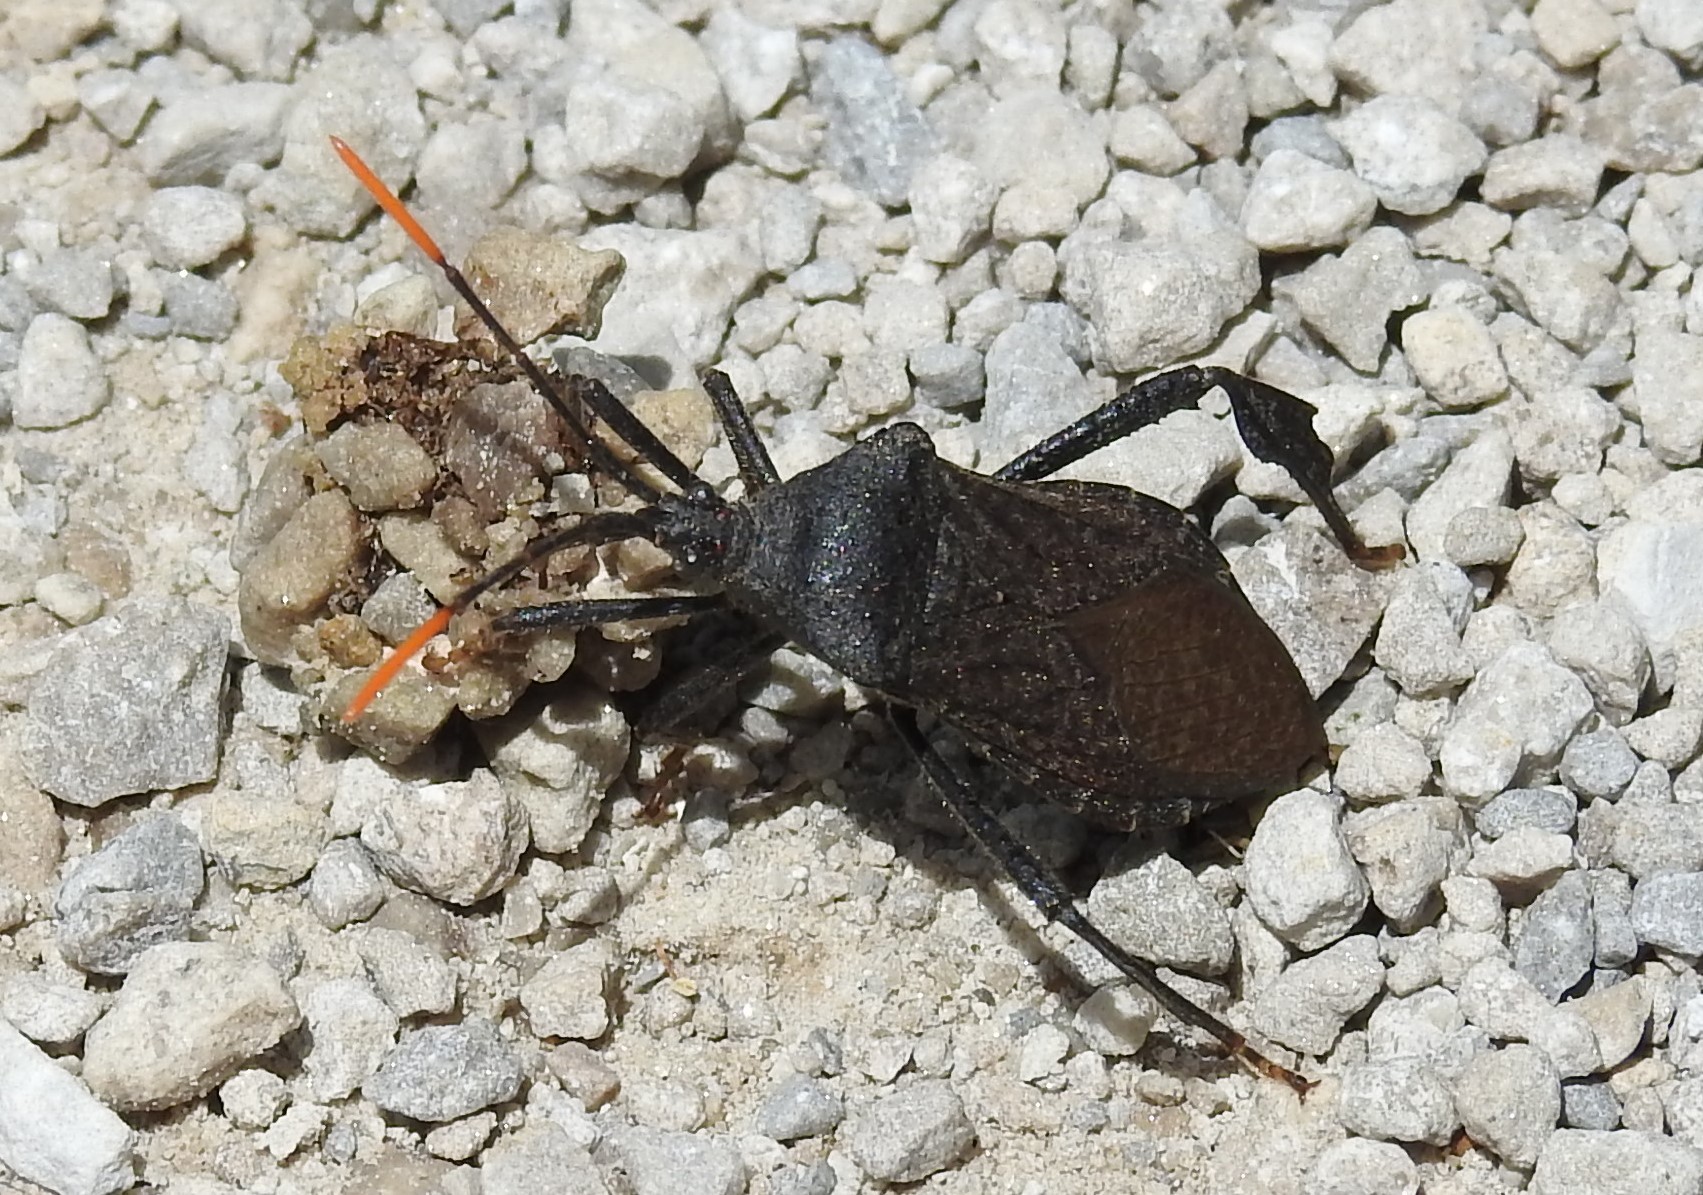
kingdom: Animalia
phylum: Arthropoda
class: Insecta
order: Hemiptera
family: Coreidae
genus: Acanthocephala
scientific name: Acanthocephala terminalis
